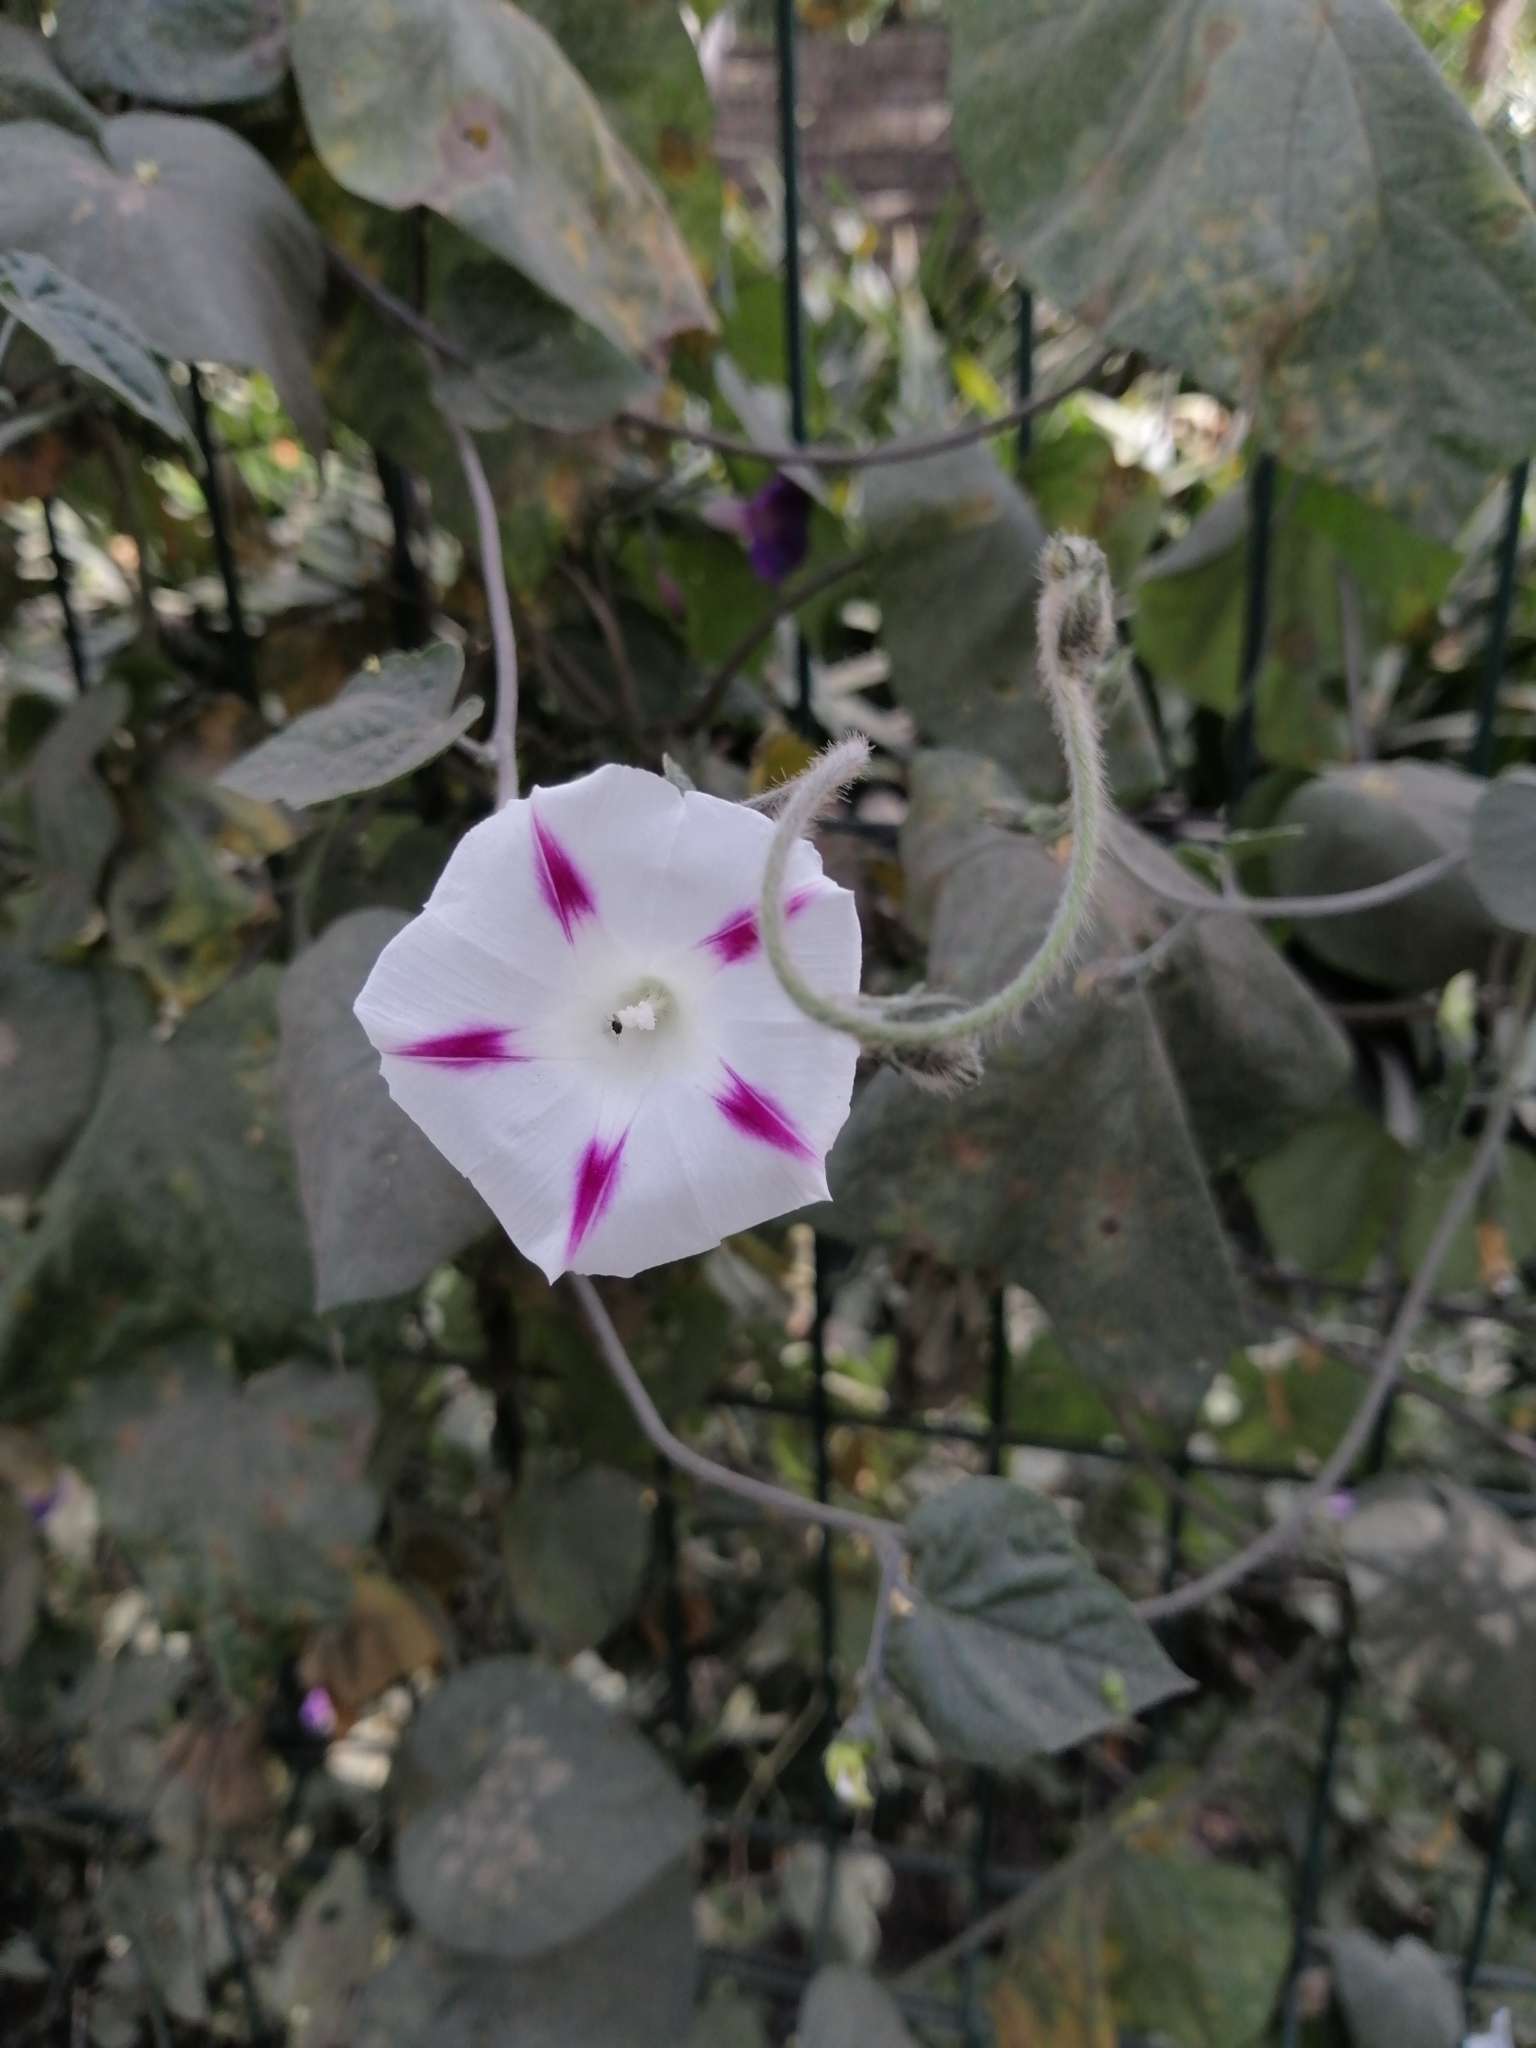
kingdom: Plantae
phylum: Tracheophyta
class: Magnoliopsida
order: Solanales
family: Convolvulaceae
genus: Ipomoea
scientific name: Ipomoea purpurea
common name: Common morning-glory
